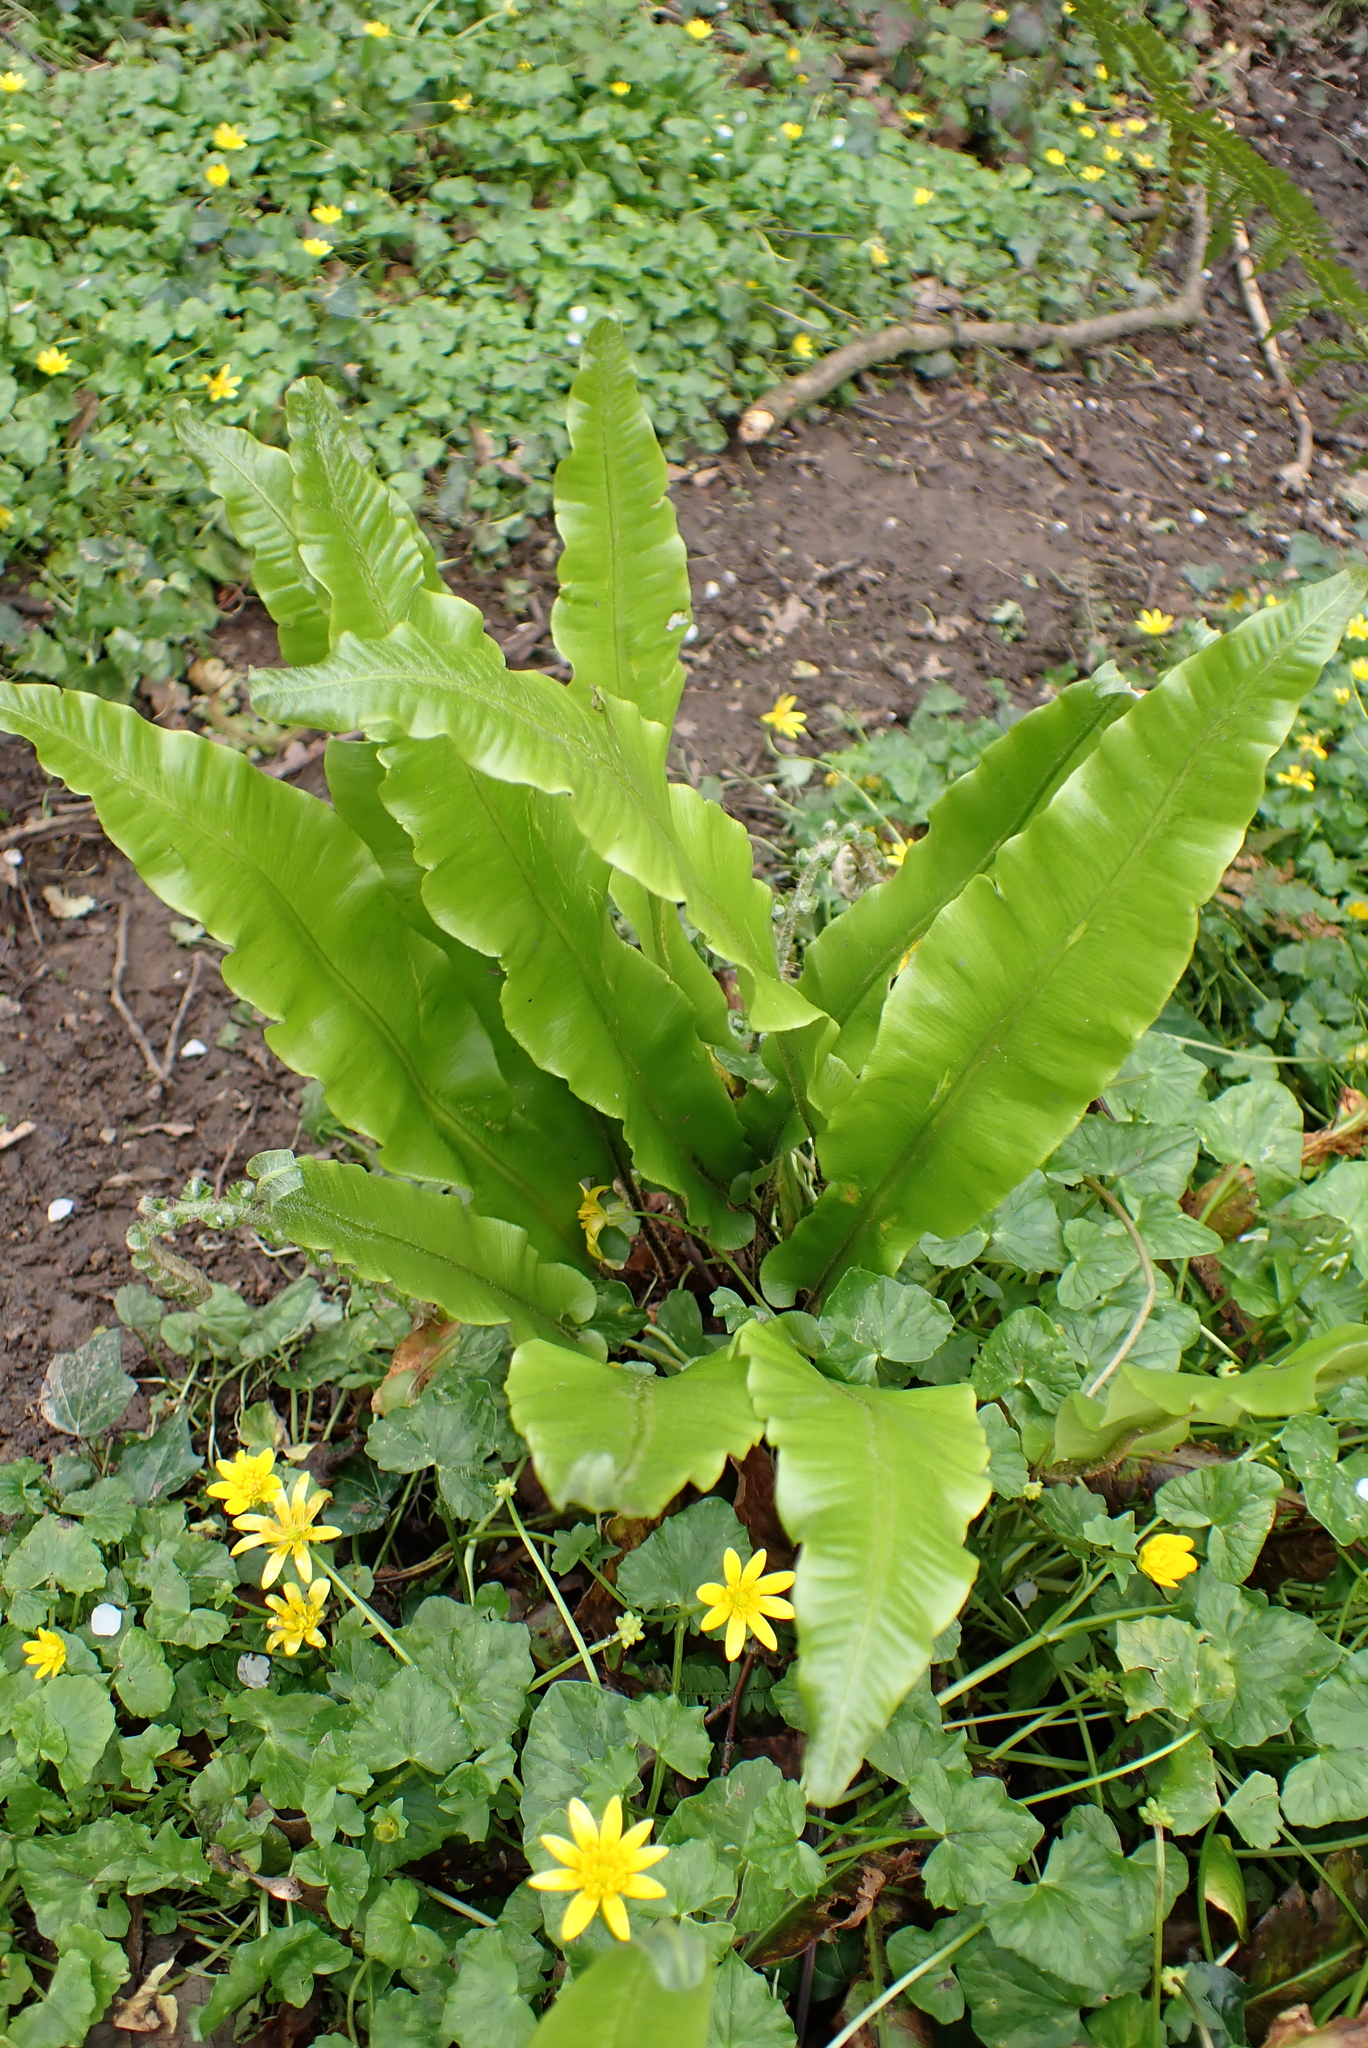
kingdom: Plantae
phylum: Tracheophyta
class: Polypodiopsida
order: Polypodiales
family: Aspleniaceae
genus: Asplenium
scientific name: Asplenium scolopendrium
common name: Hart's-tongue fern
